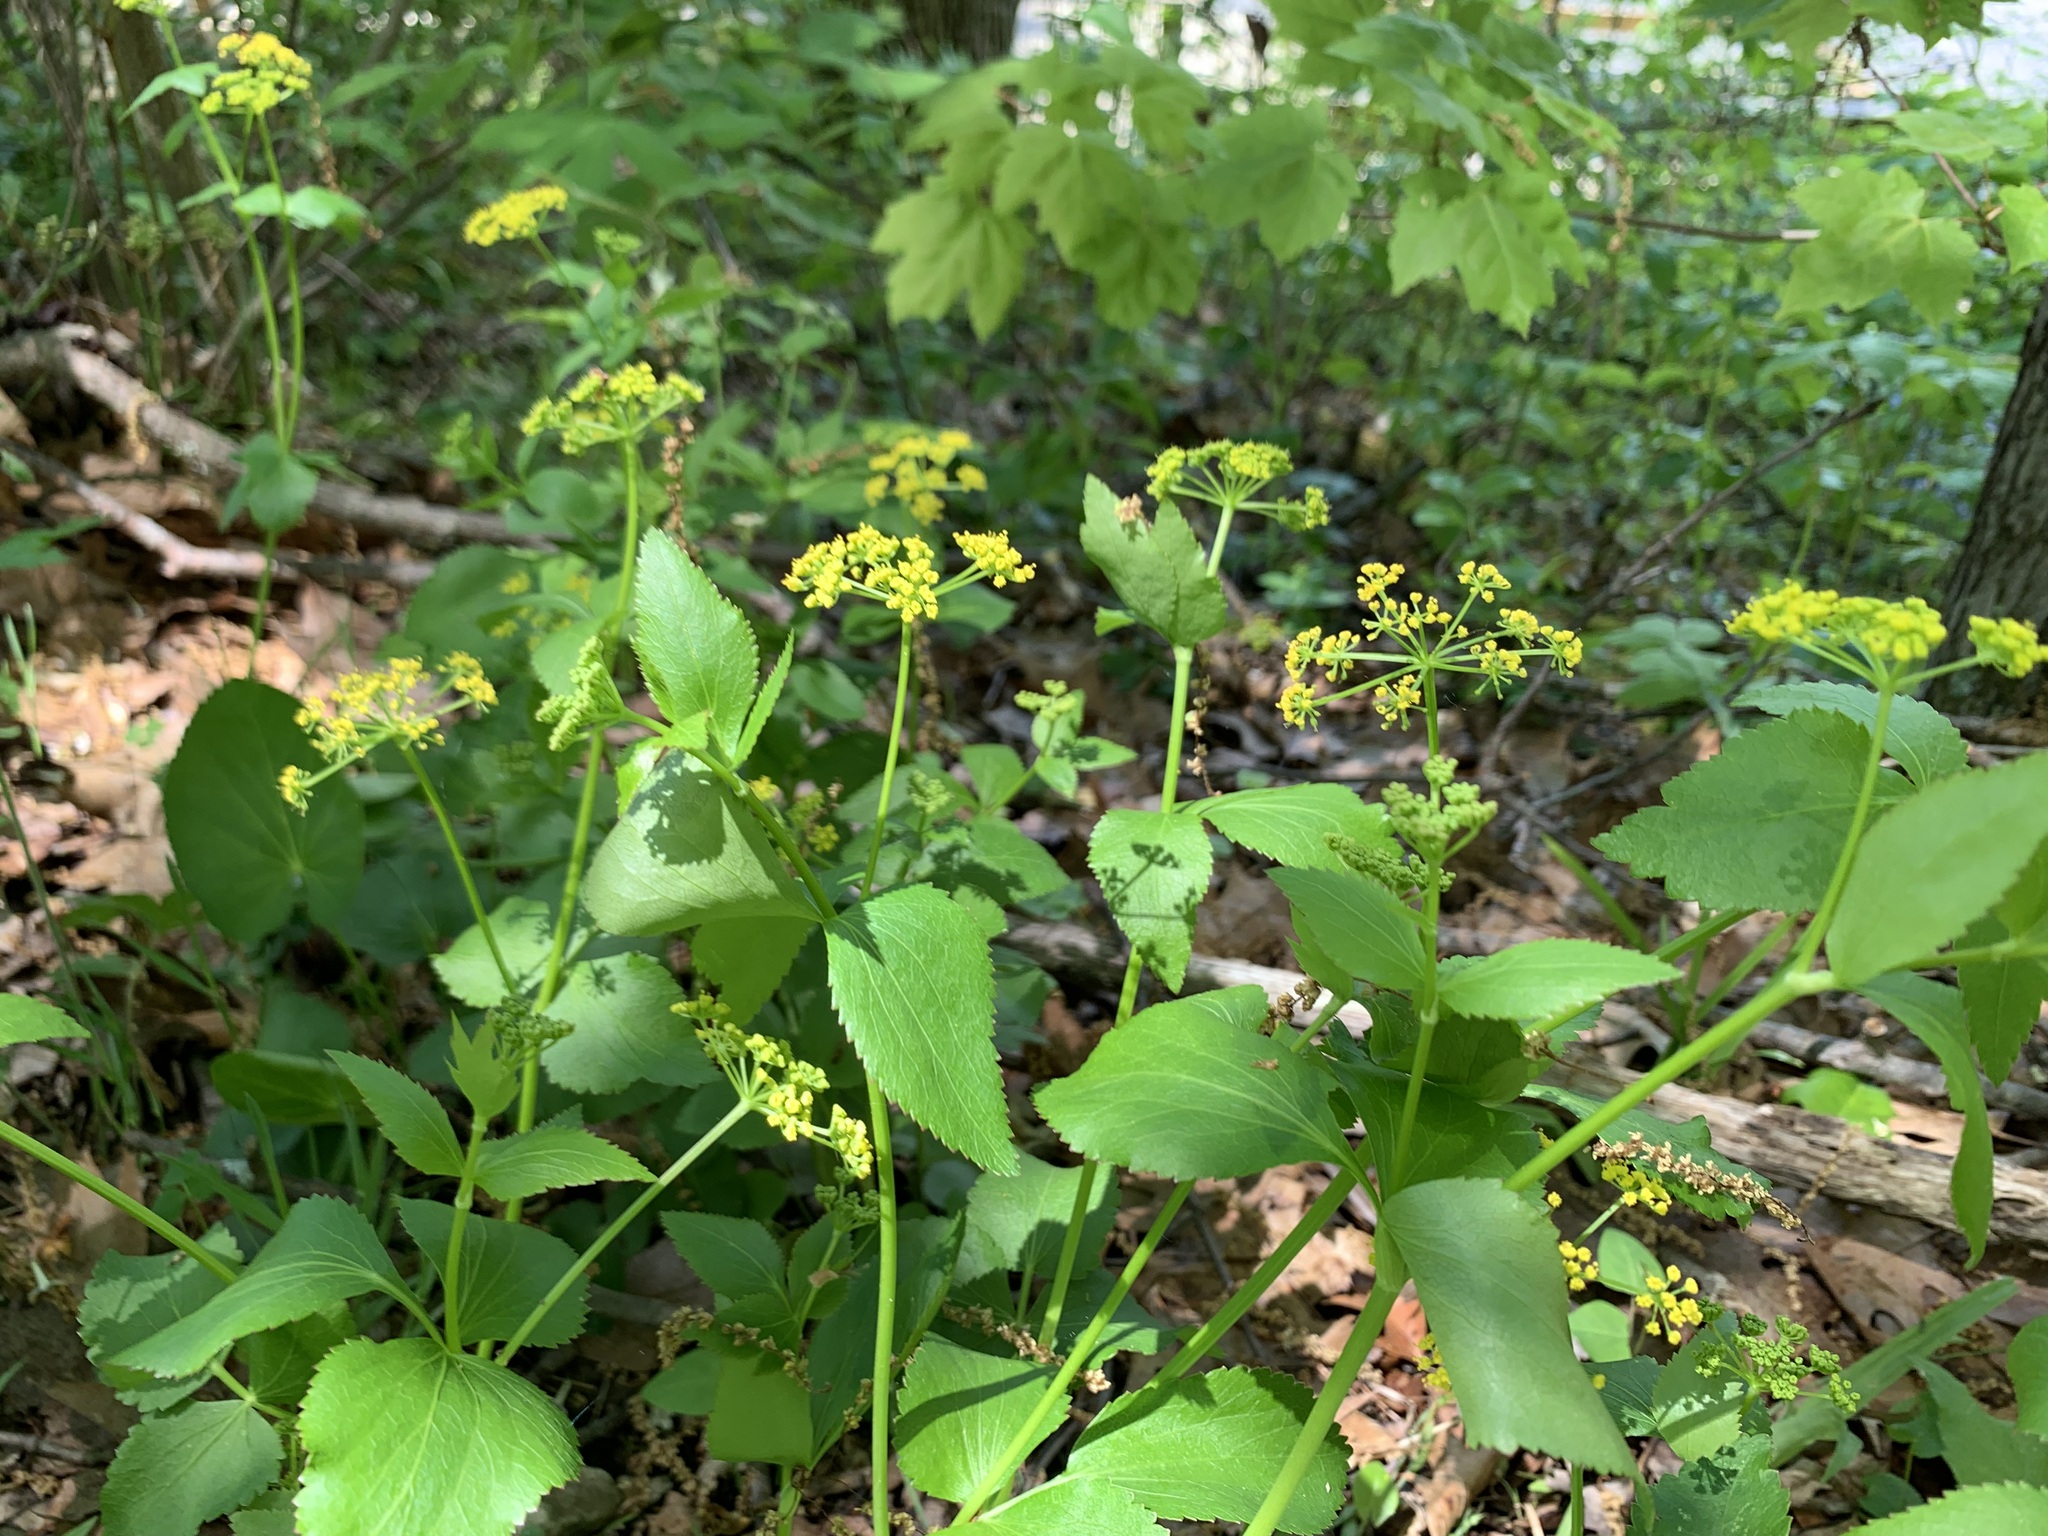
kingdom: Plantae
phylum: Tracheophyta
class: Magnoliopsida
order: Apiales
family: Apiaceae
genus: Zizia
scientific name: Zizia aptera
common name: Heart-leaved alexanders
